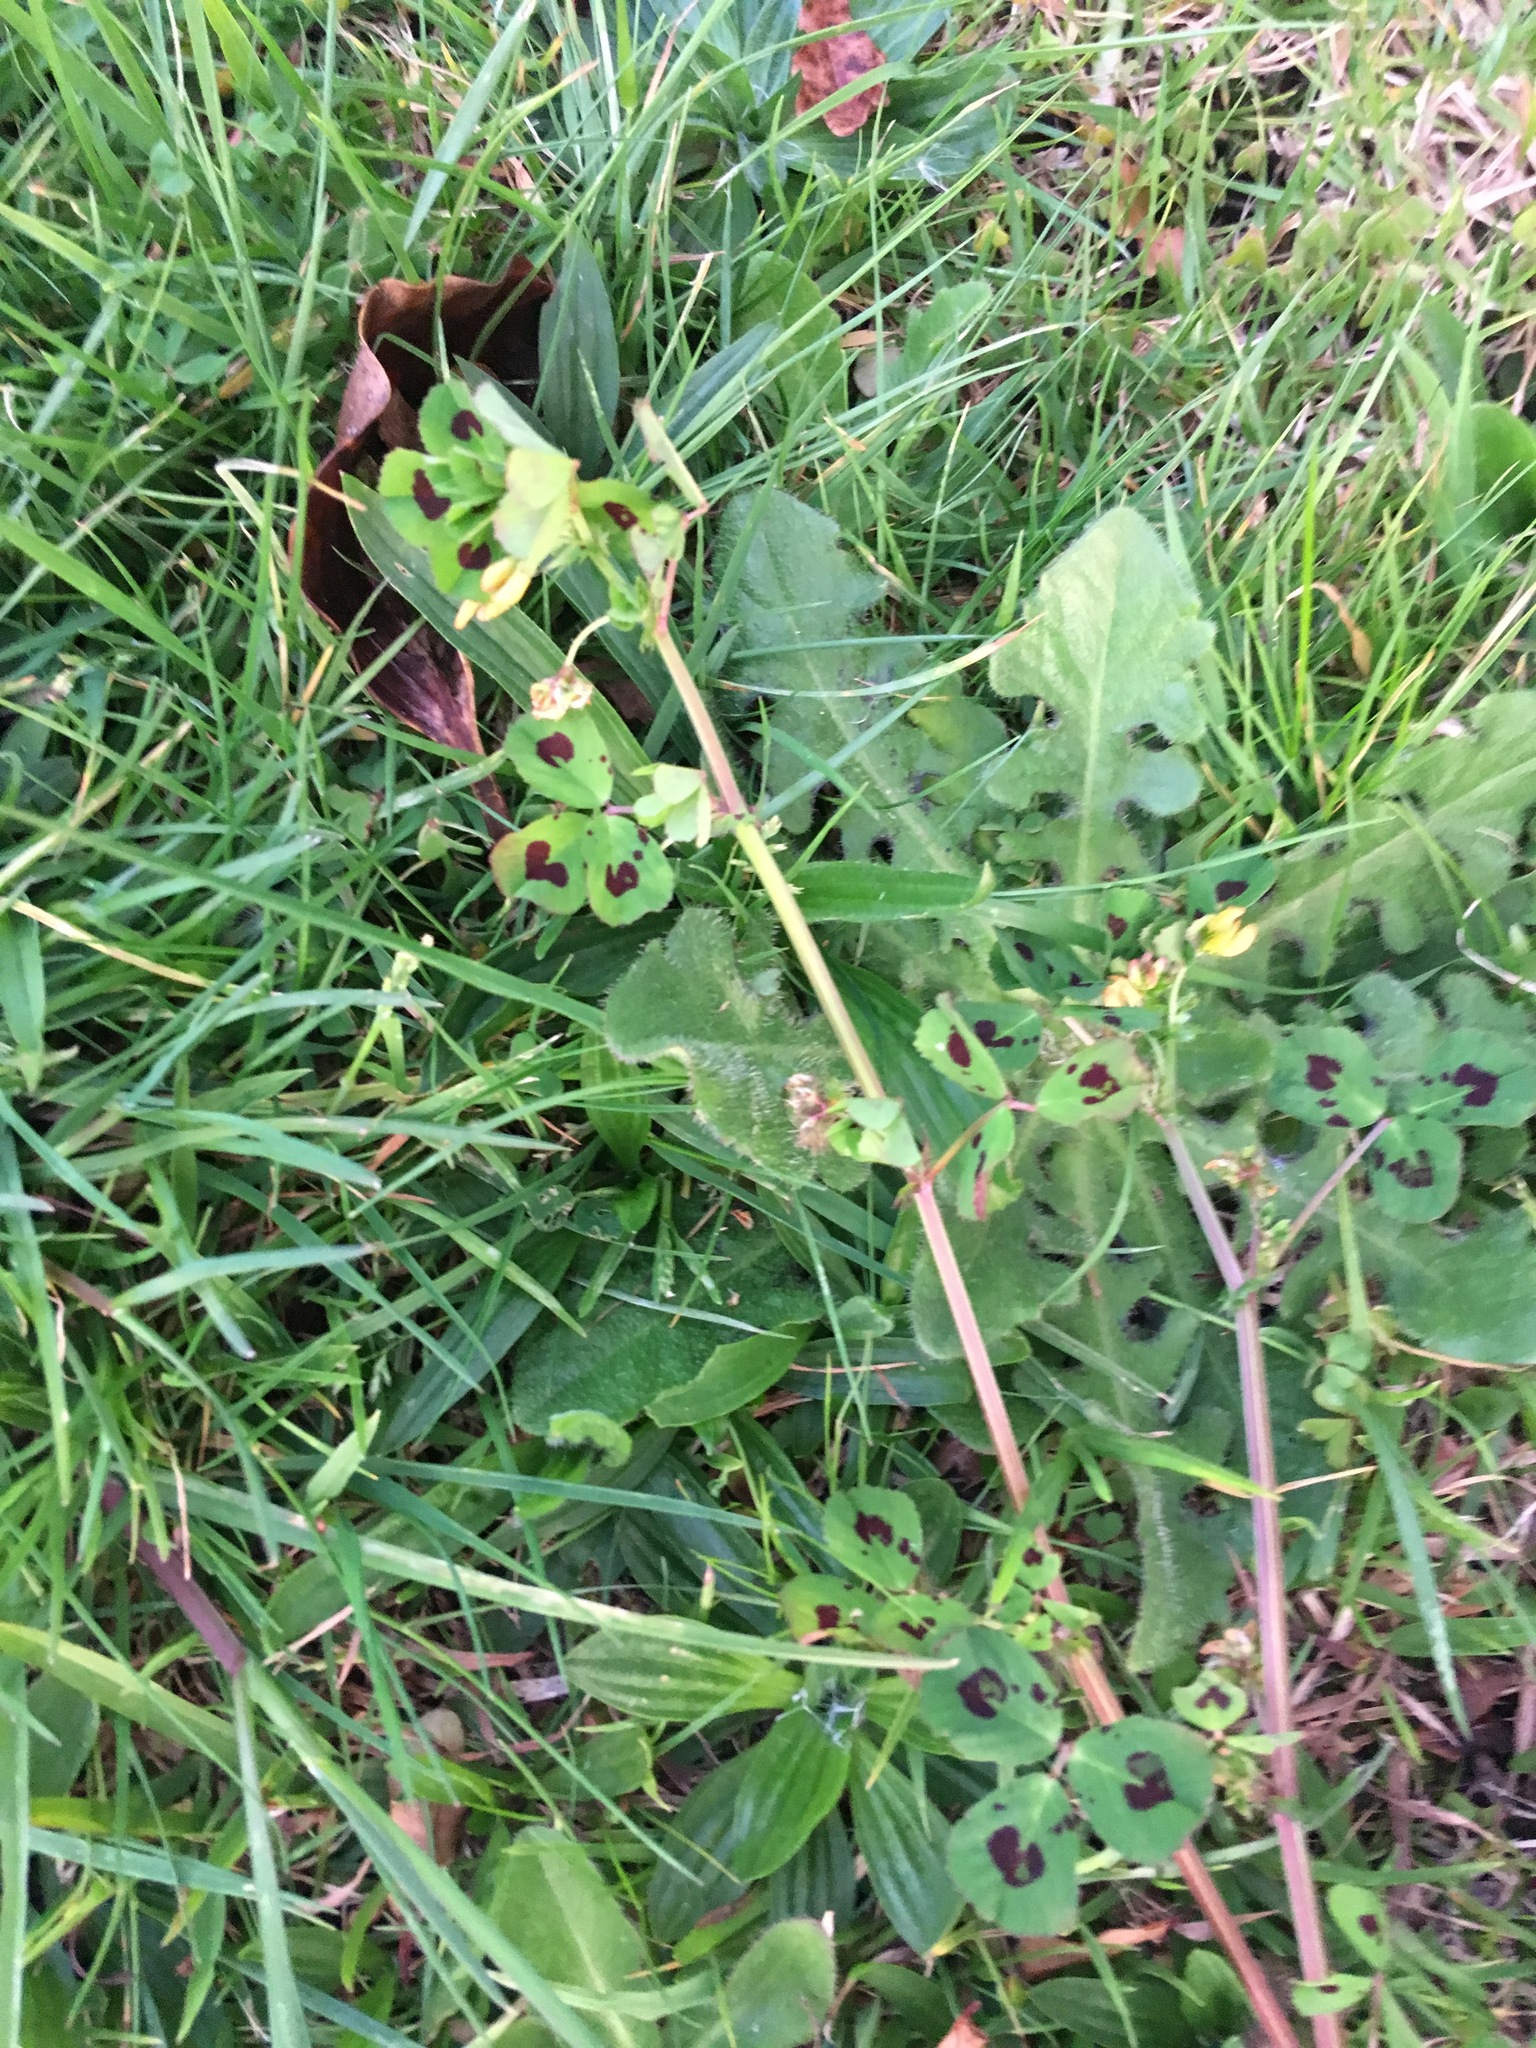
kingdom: Plantae
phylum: Tracheophyta
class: Magnoliopsida
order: Fabales
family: Fabaceae
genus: Medicago
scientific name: Medicago arabica
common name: Spotted medick
